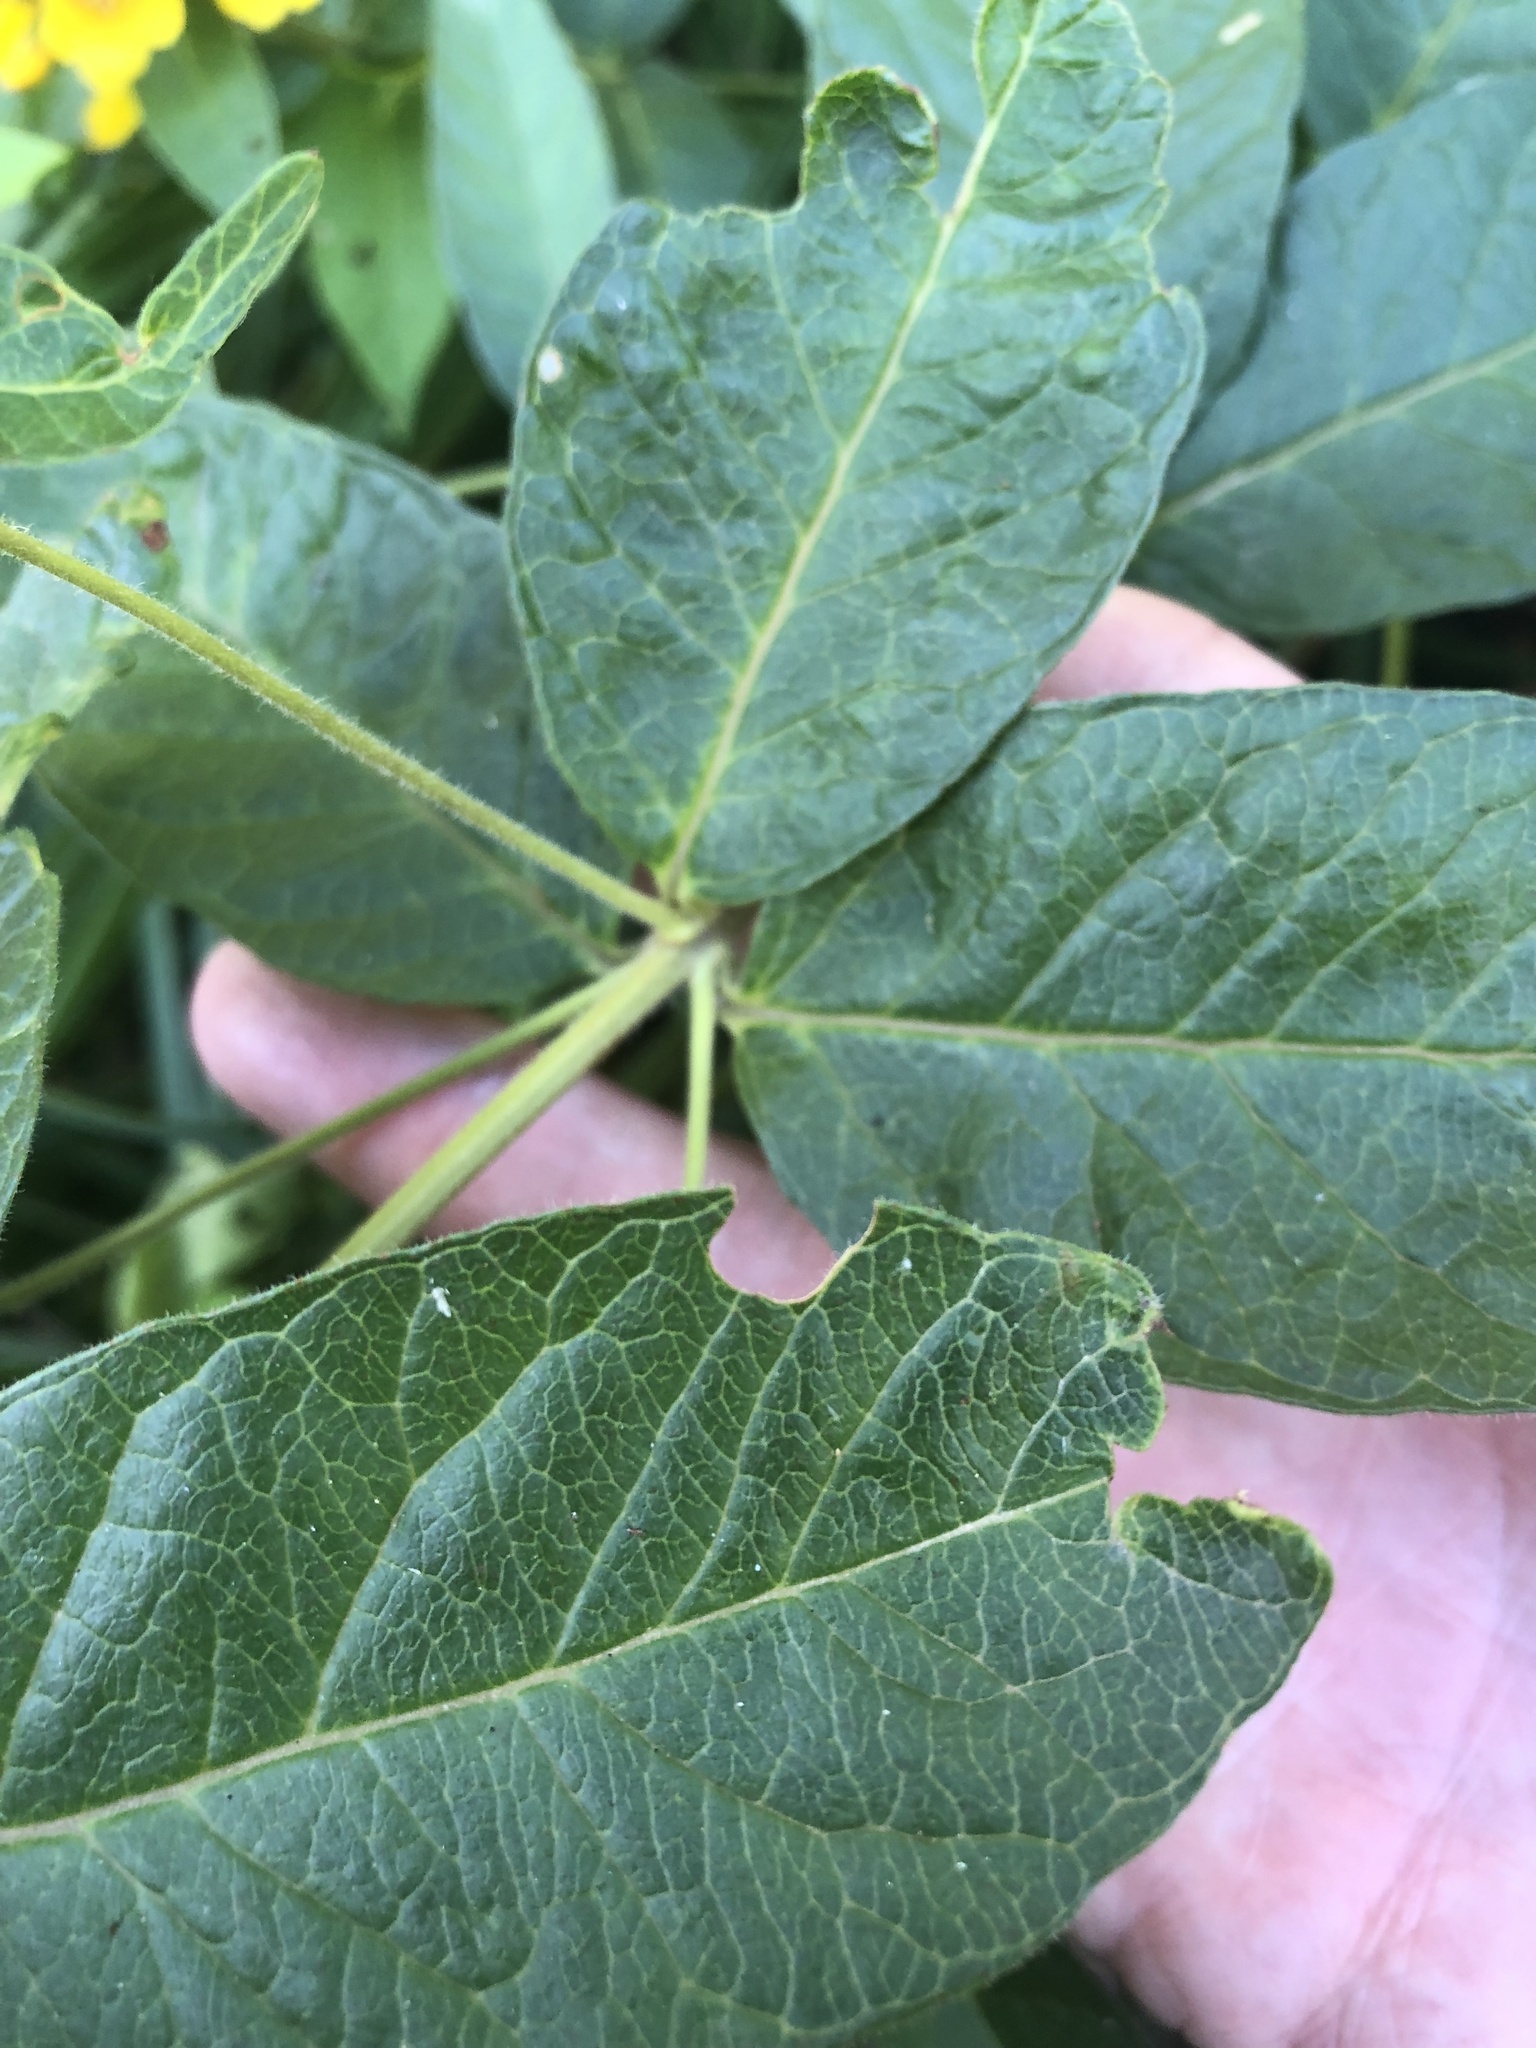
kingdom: Plantae
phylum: Tracheophyta
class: Magnoliopsida
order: Ericales
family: Primulaceae
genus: Lysimachia
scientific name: Lysimachia vulgaris
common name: Yellow loosestrife
